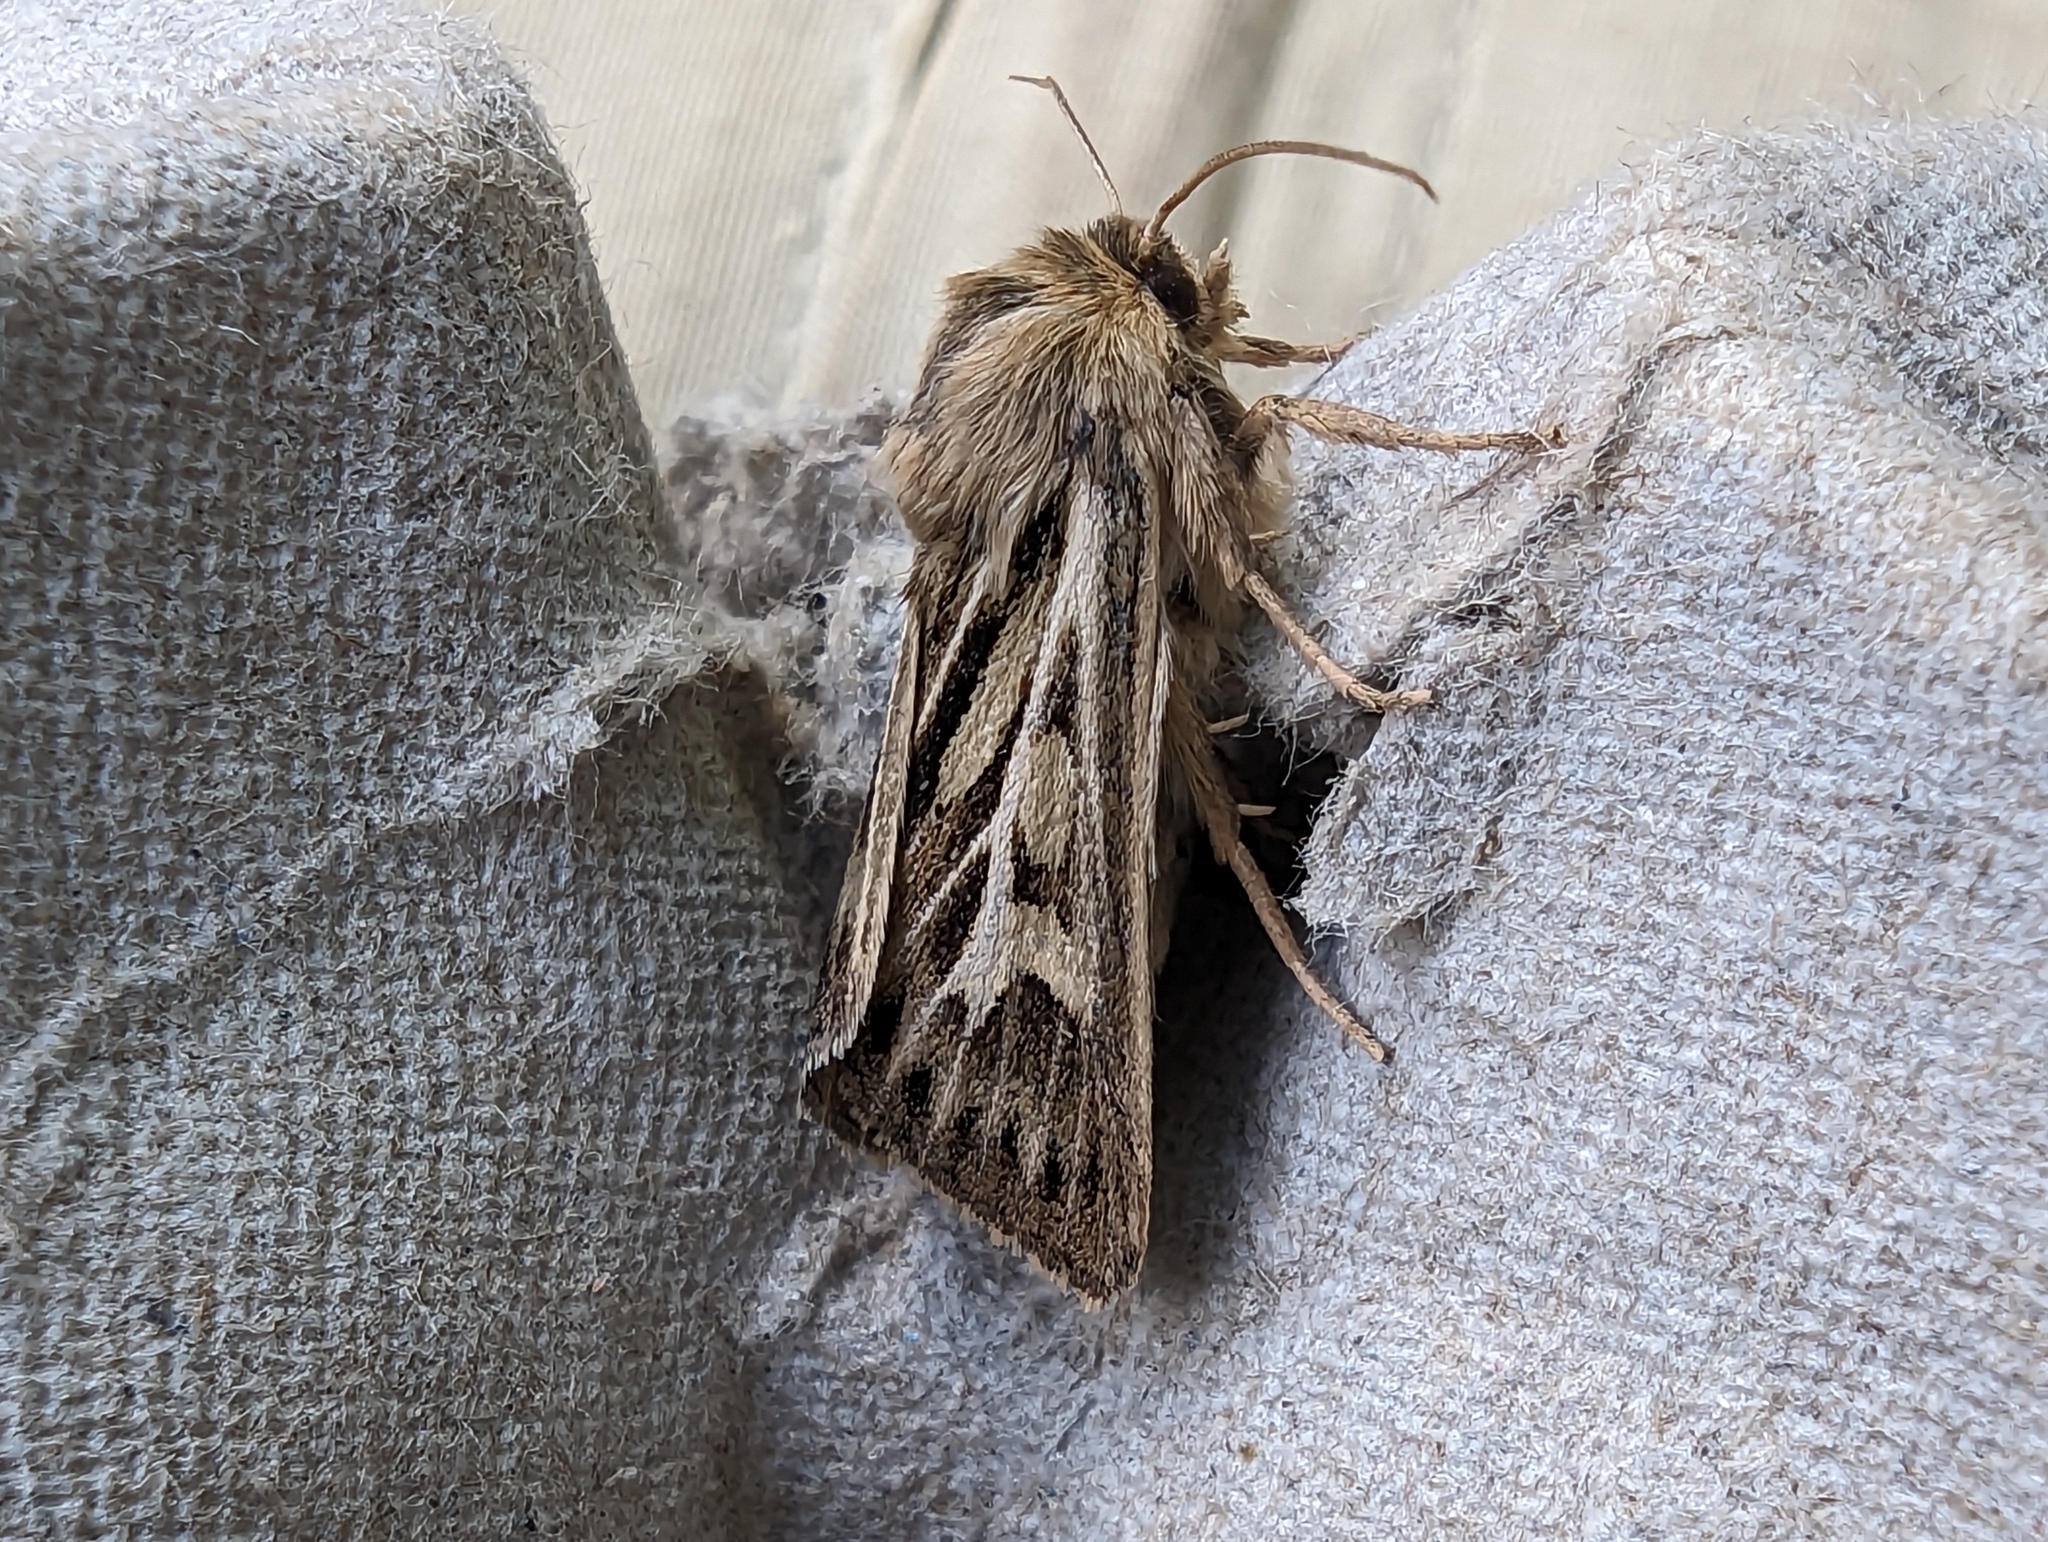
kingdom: Animalia
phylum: Arthropoda
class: Insecta
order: Lepidoptera
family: Noctuidae
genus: Cerapteryx
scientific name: Cerapteryx graminis
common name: Antler moth
